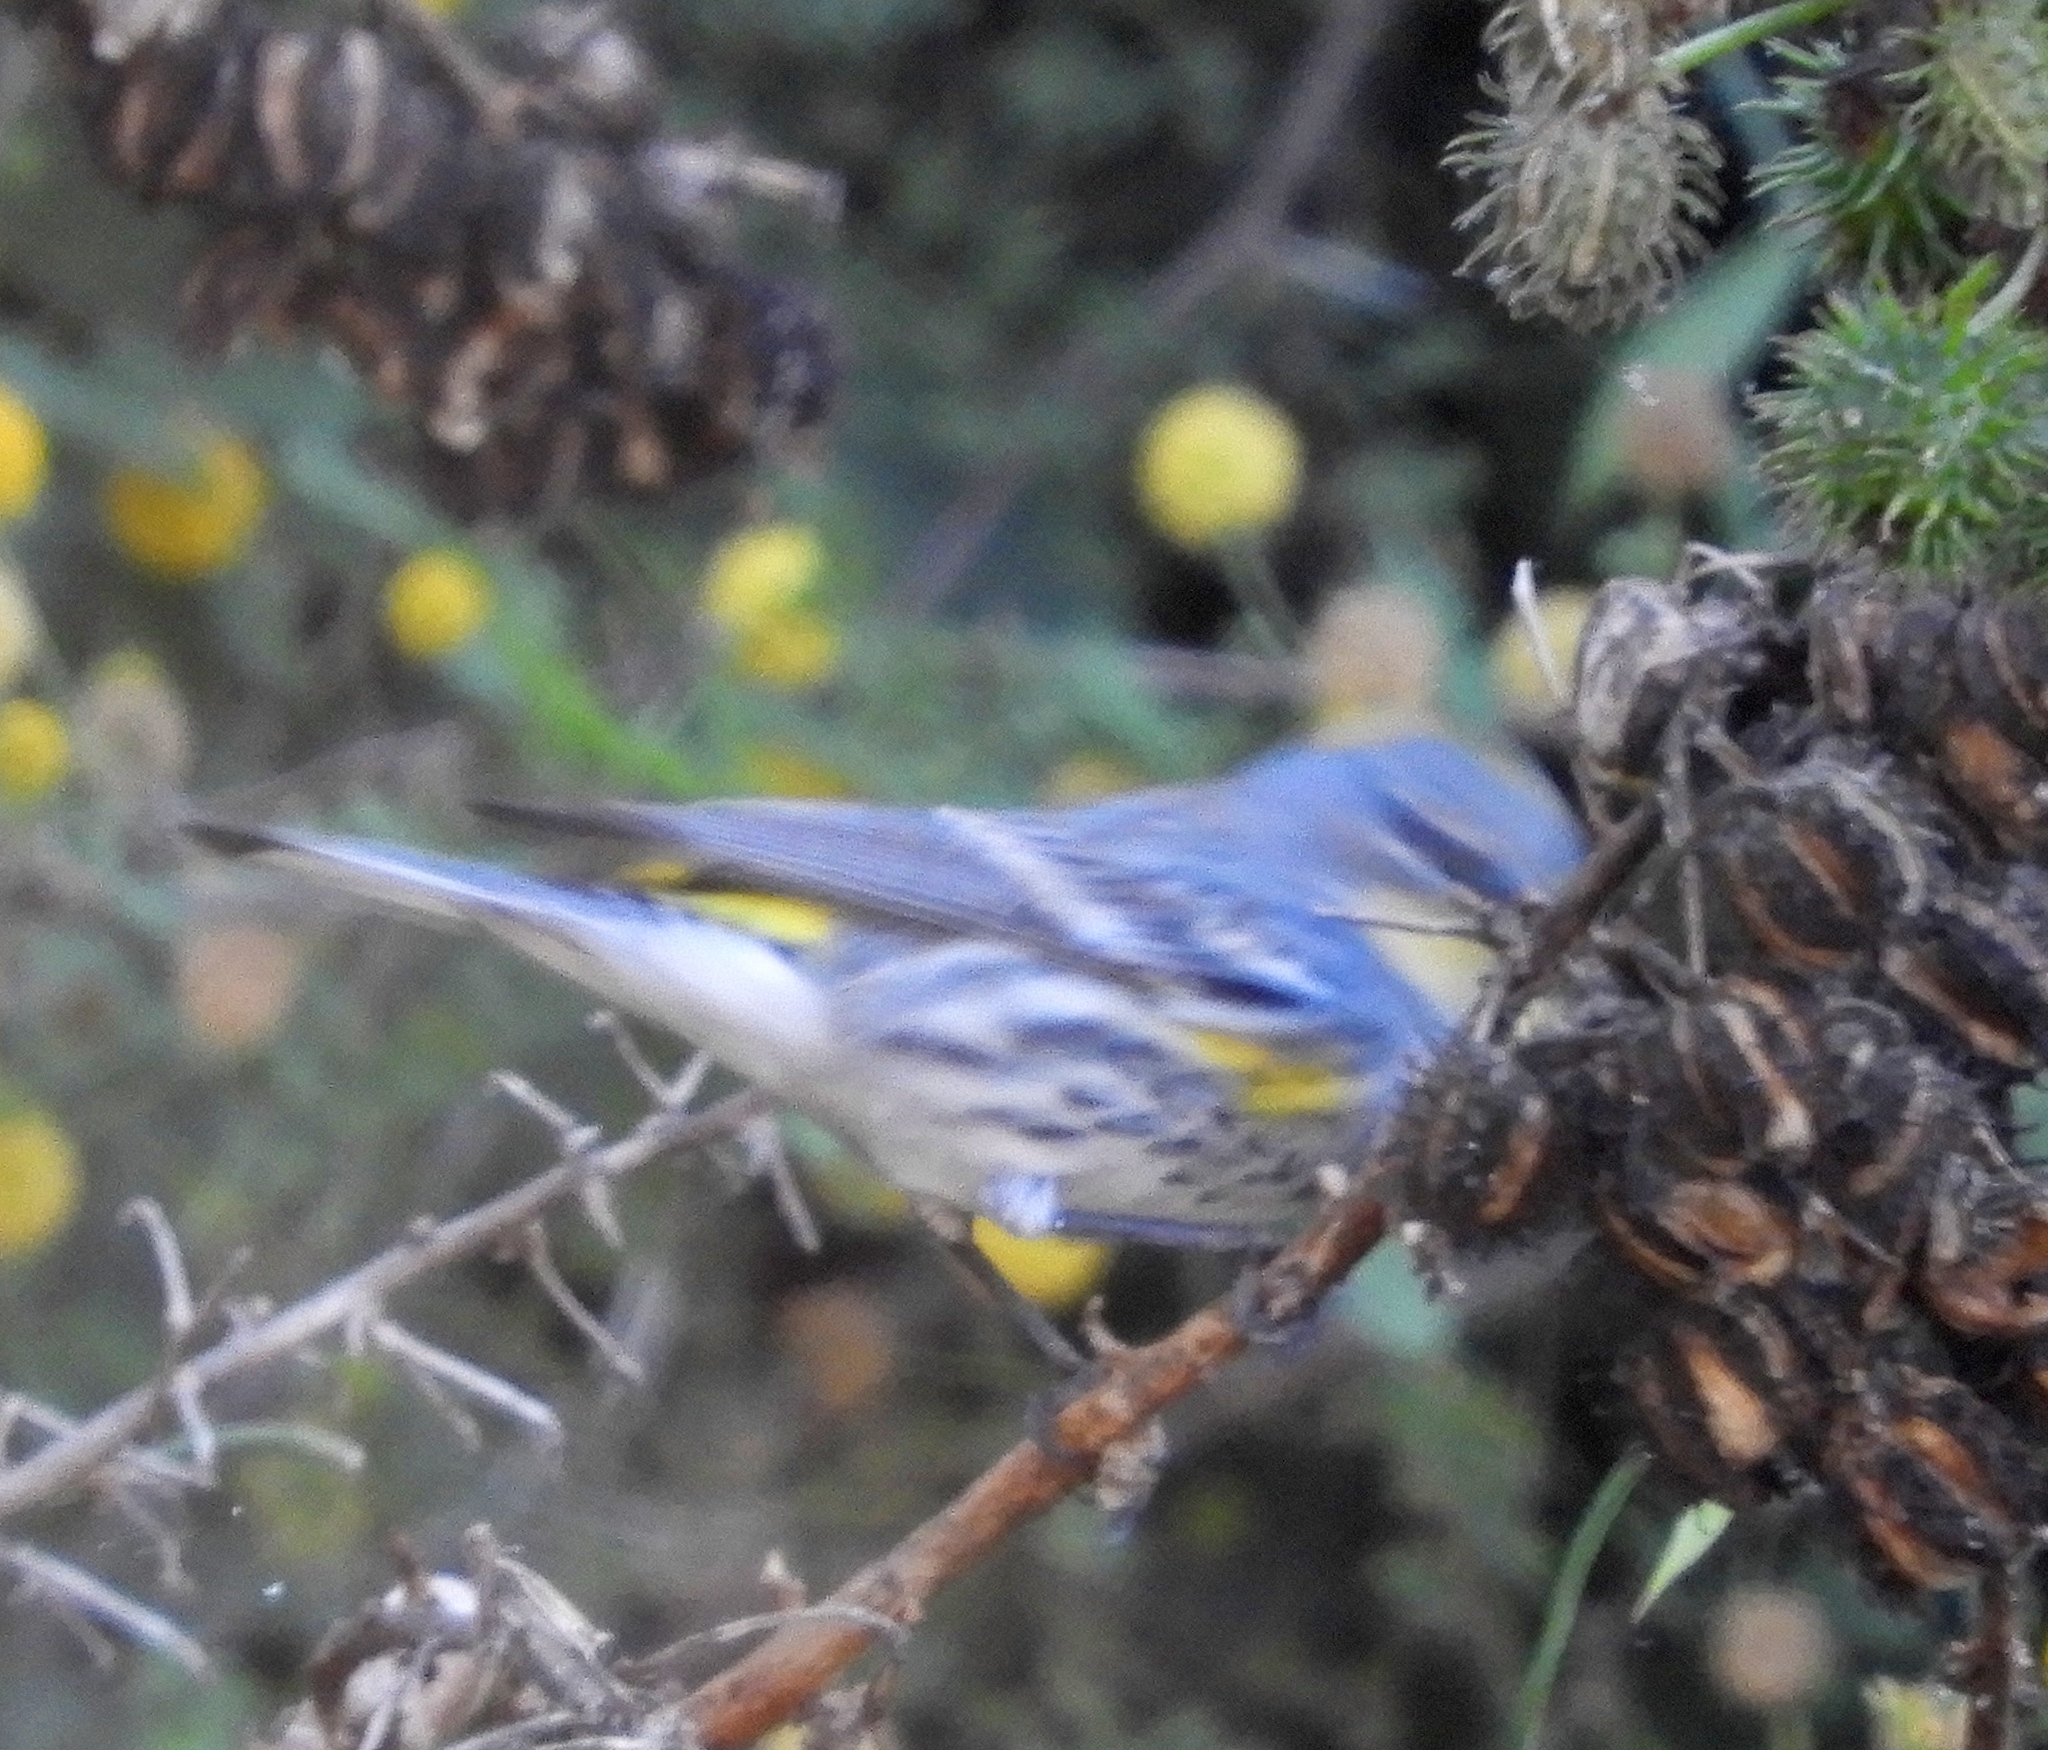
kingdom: Animalia
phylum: Chordata
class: Aves
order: Passeriformes
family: Parulidae
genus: Setophaga
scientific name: Setophaga coronata
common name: Myrtle warbler
